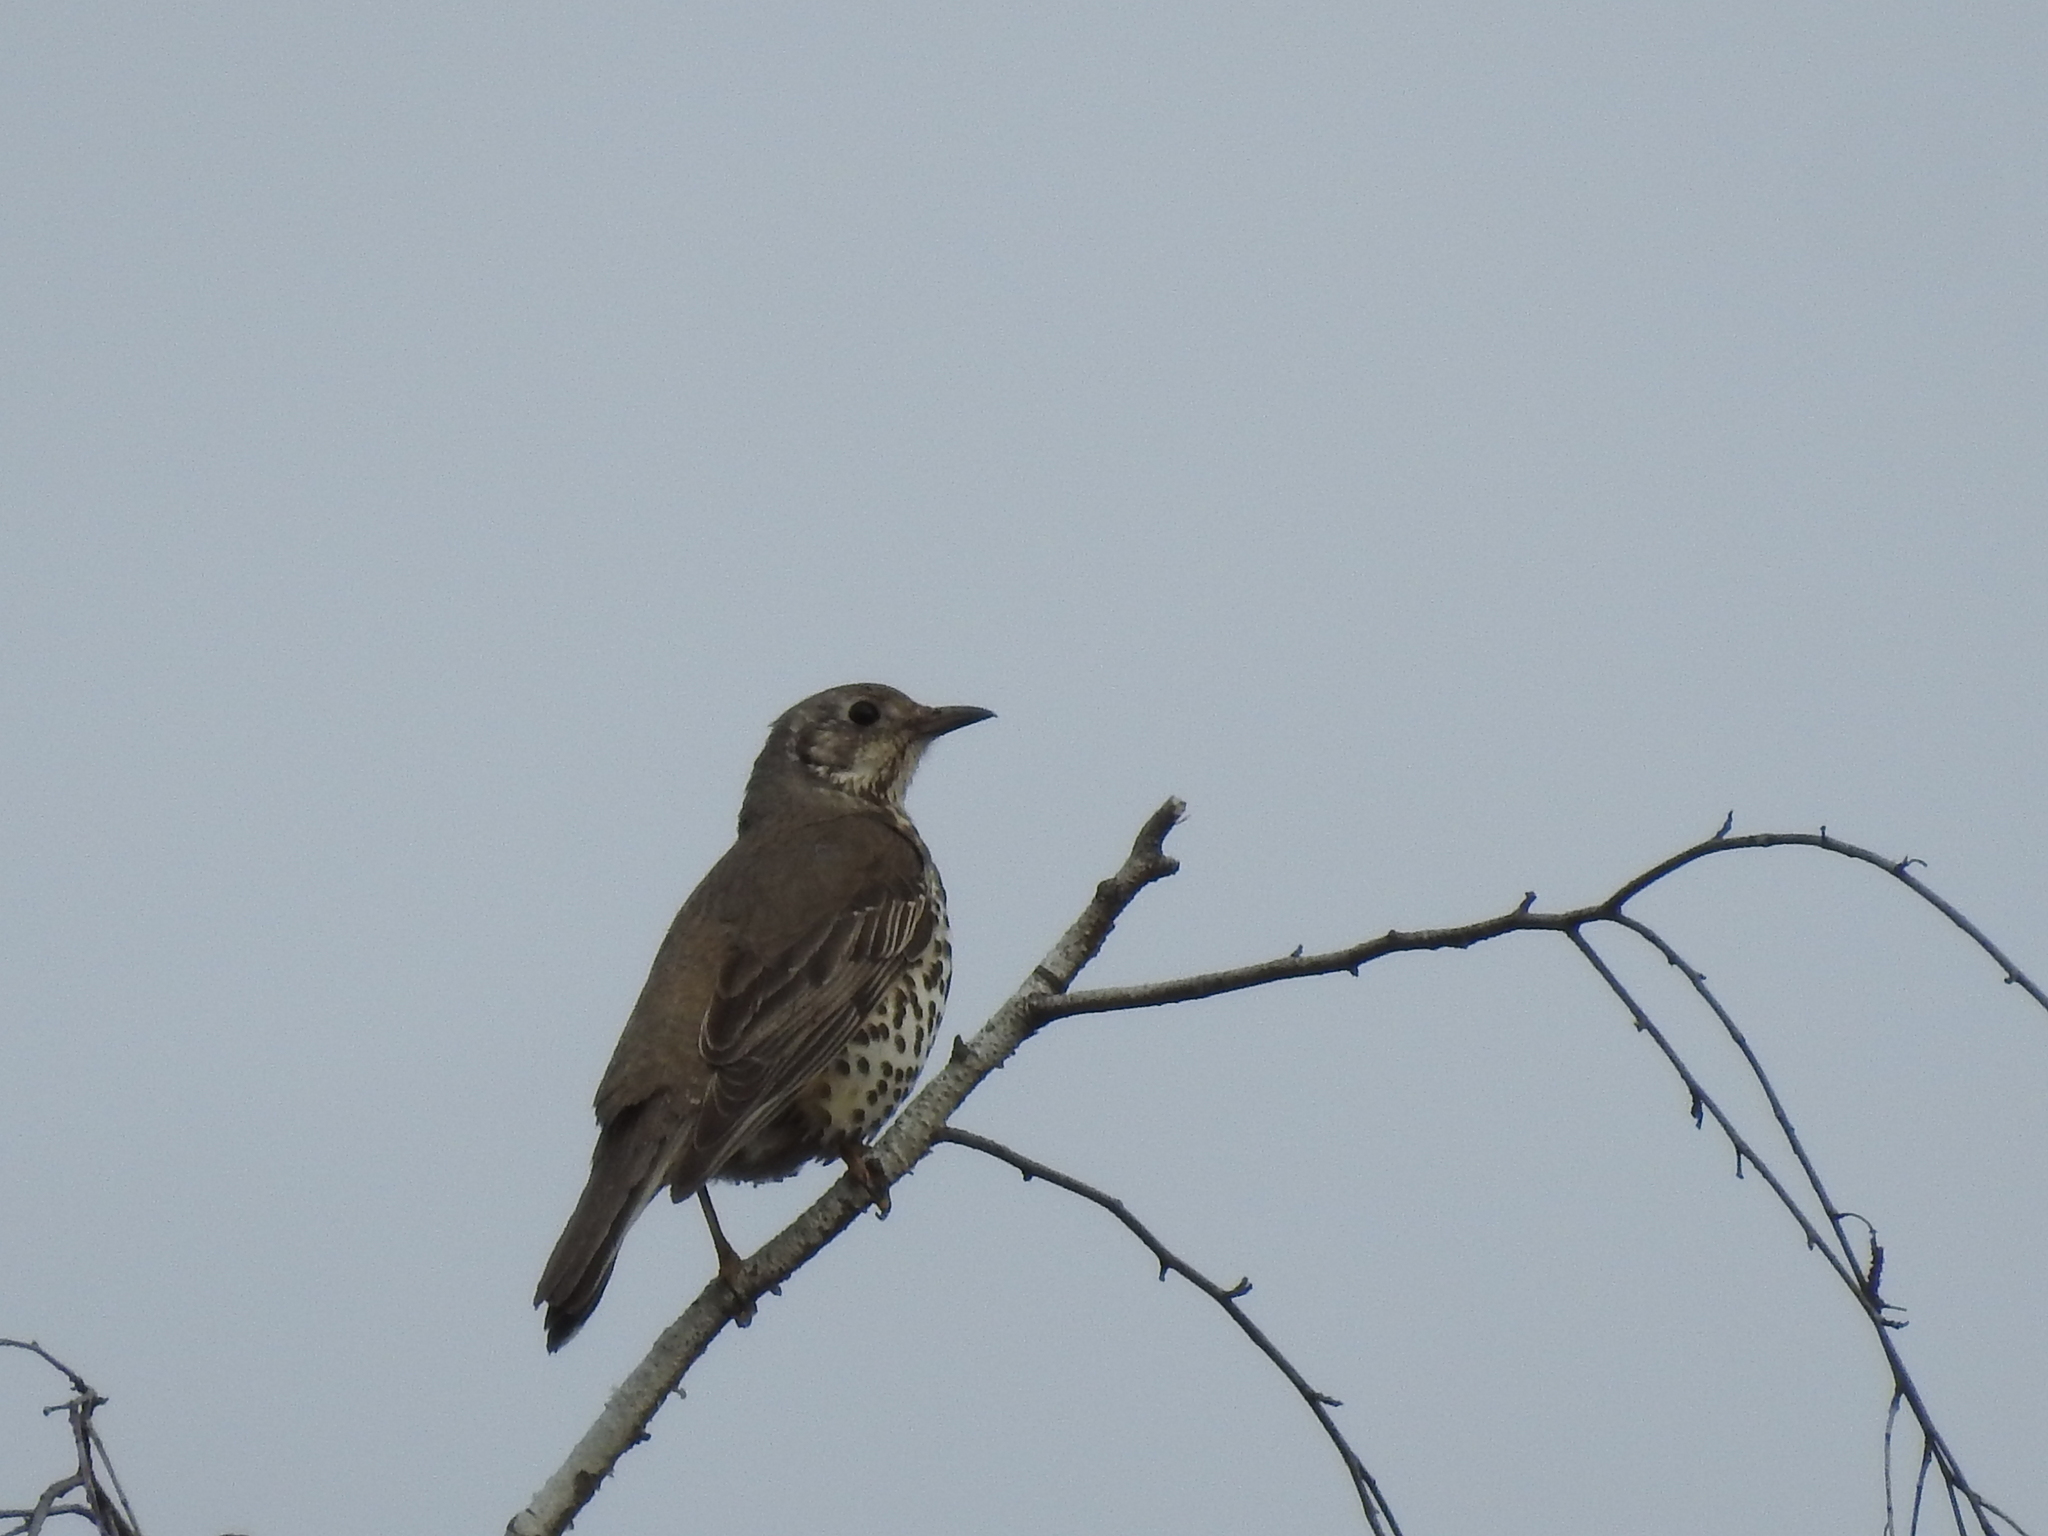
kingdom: Animalia
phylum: Chordata
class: Aves
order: Passeriformes
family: Turdidae
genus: Turdus
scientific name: Turdus viscivorus
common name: Mistle thrush
